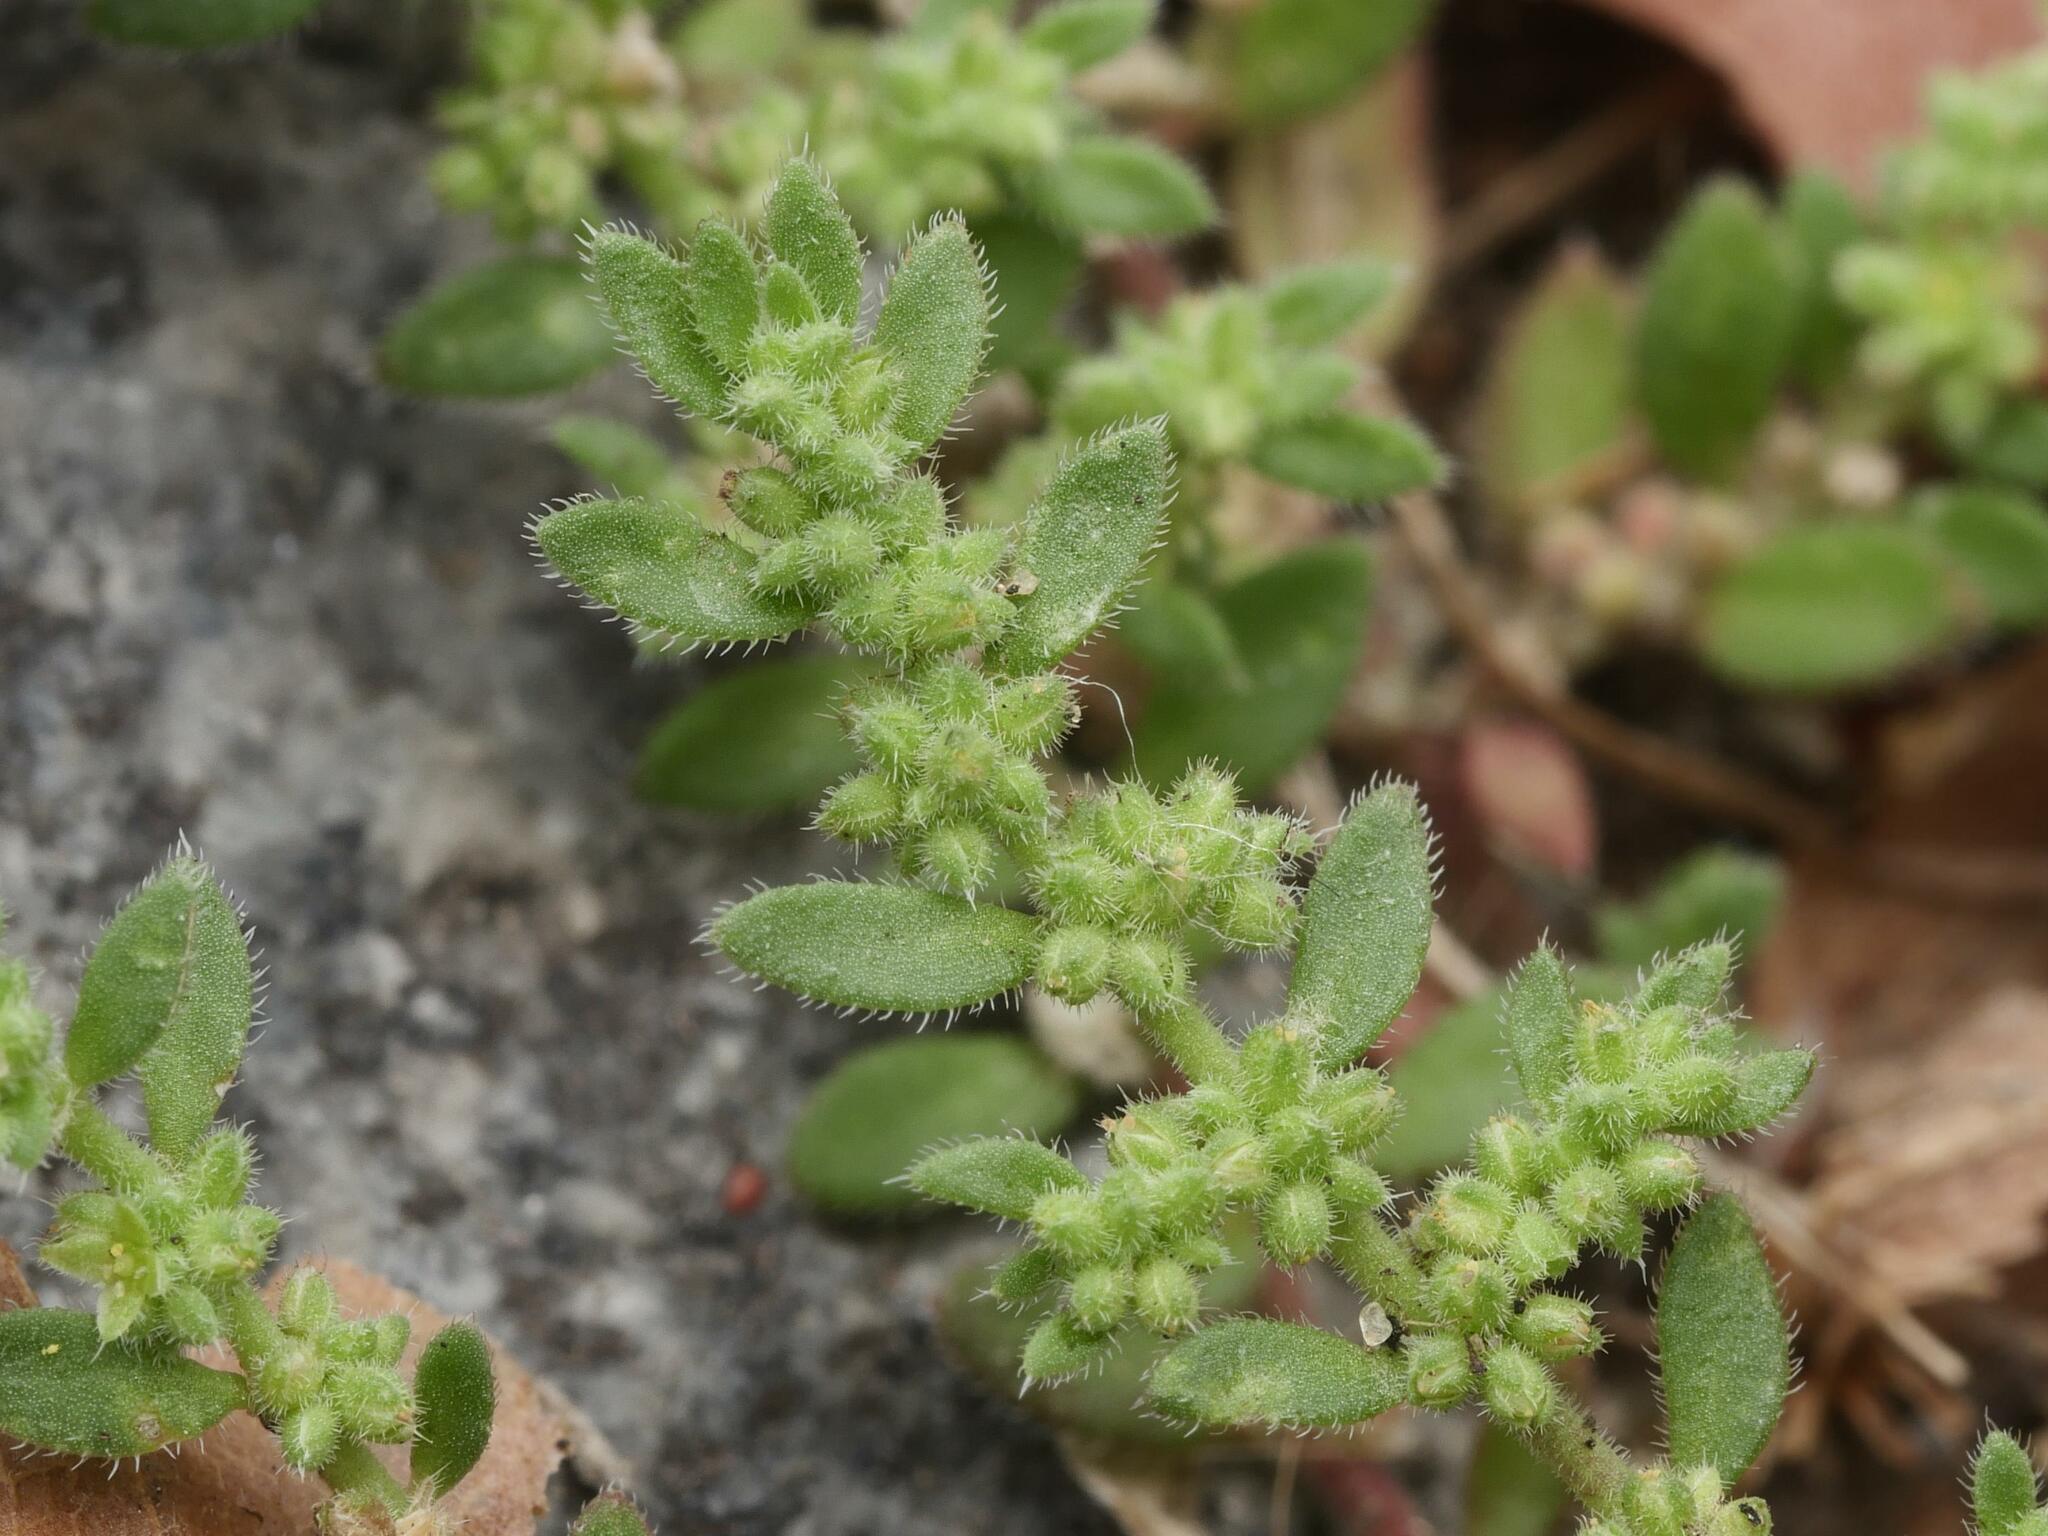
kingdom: Plantae
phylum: Tracheophyta
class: Magnoliopsida
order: Caryophyllales
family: Caryophyllaceae
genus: Herniaria
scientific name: Herniaria hirsuta
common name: Hairy rupturewort
